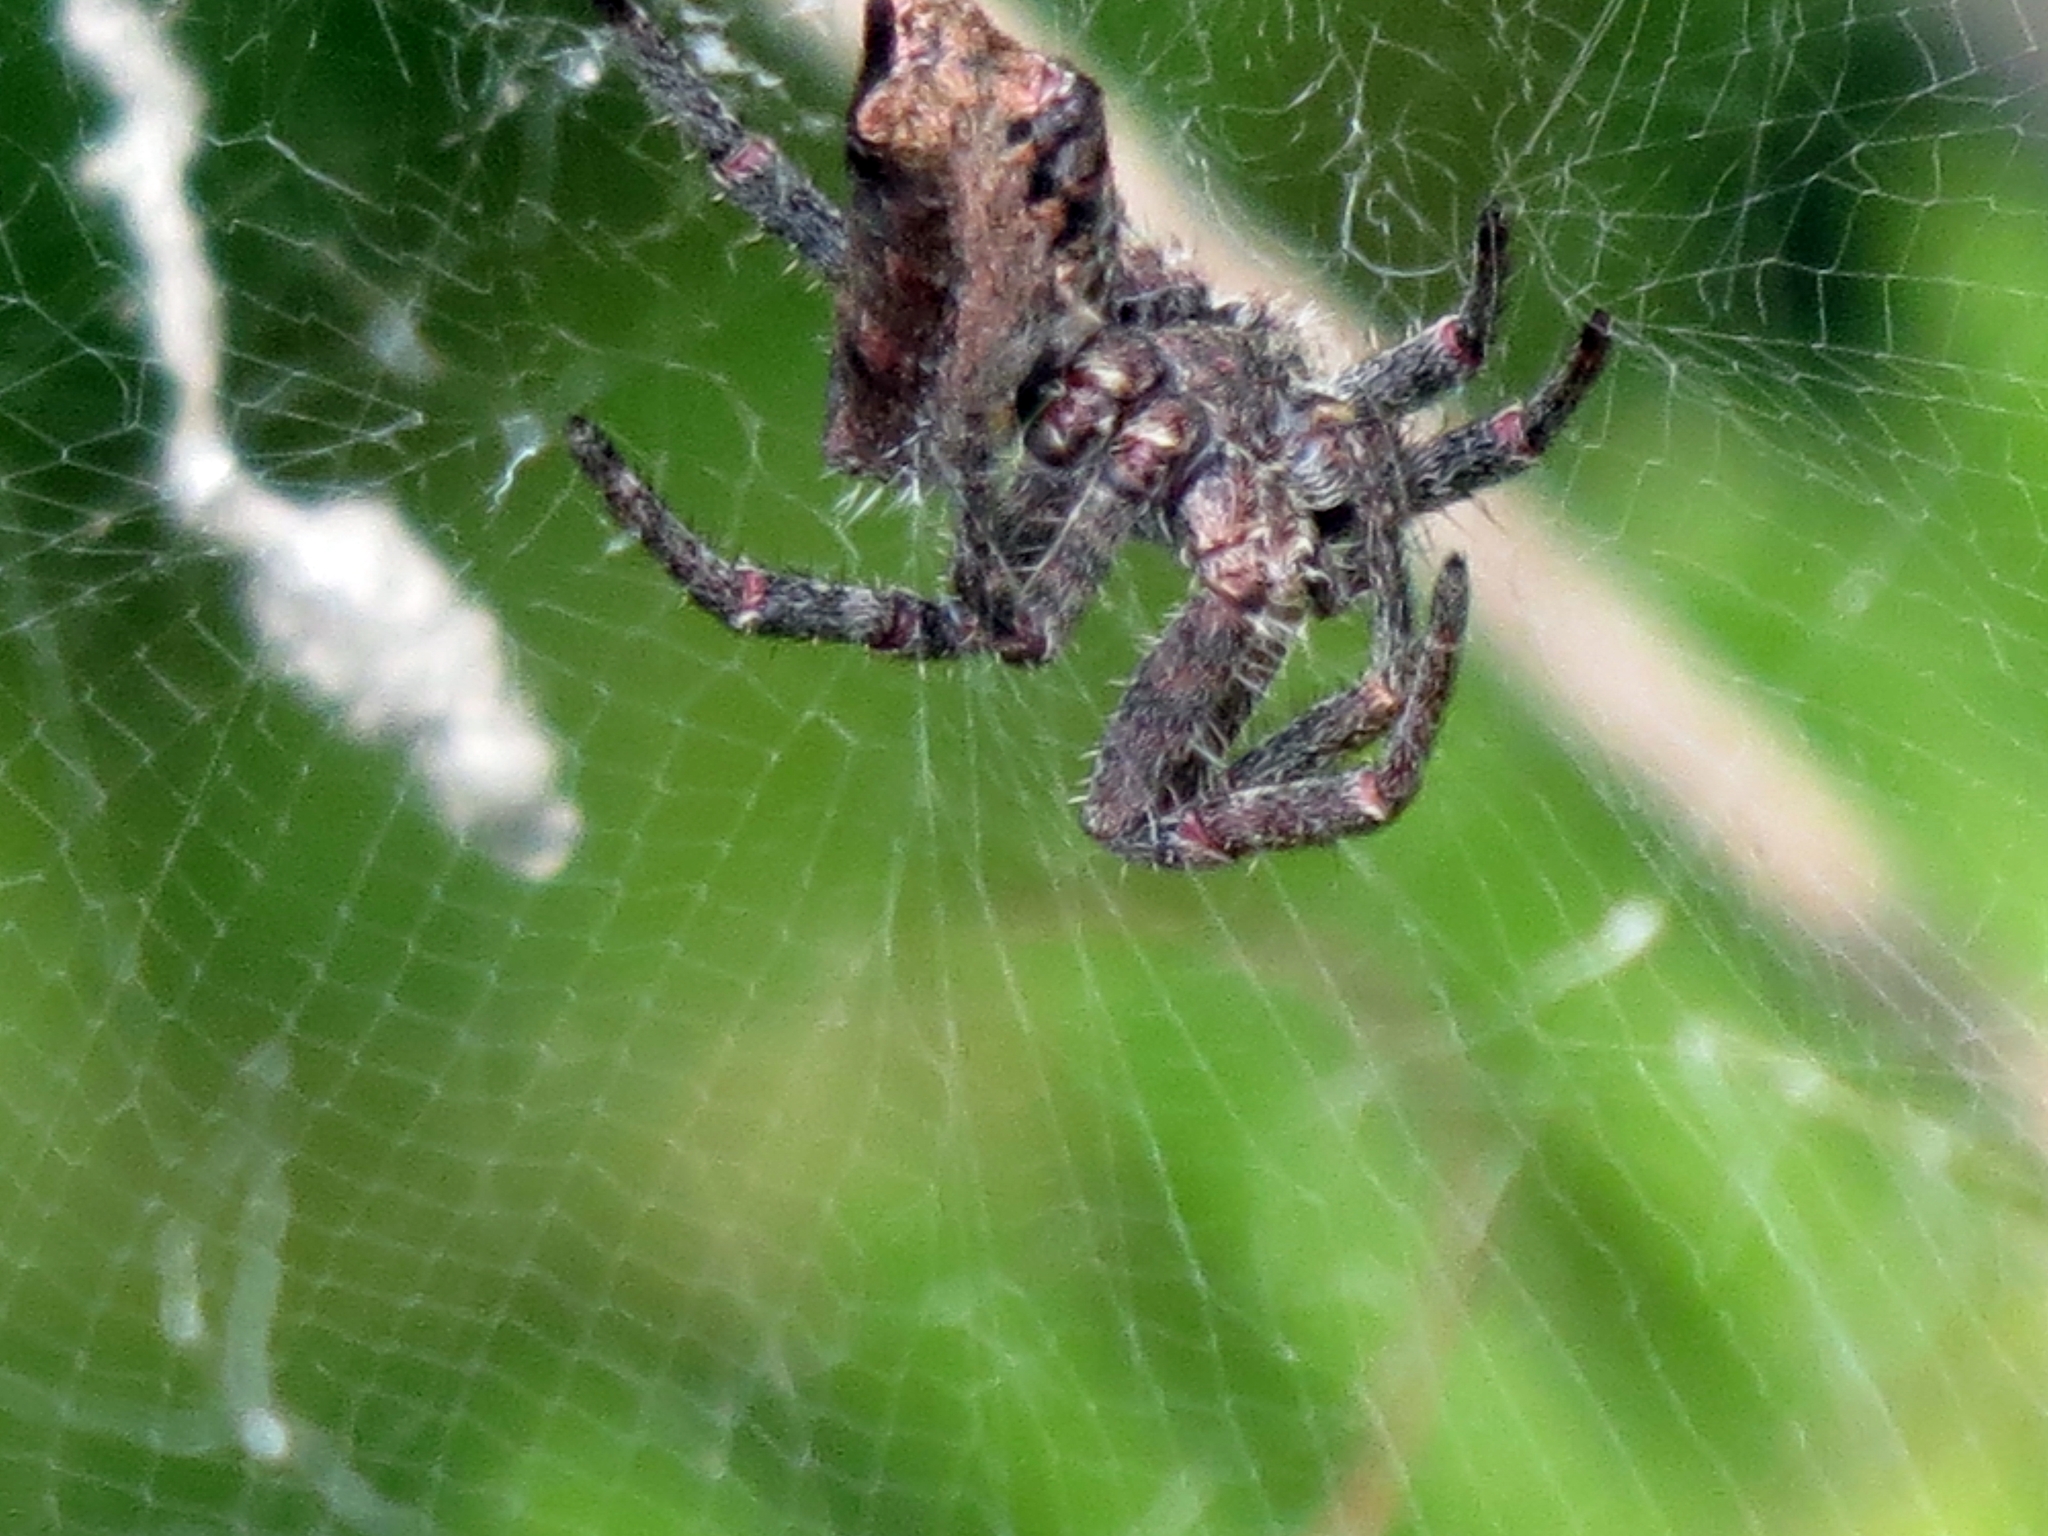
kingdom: Animalia
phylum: Arthropoda
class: Arachnida
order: Araneae
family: Araneidae
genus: Cyrtophora
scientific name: Cyrtophora citricola
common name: Orb weavers
